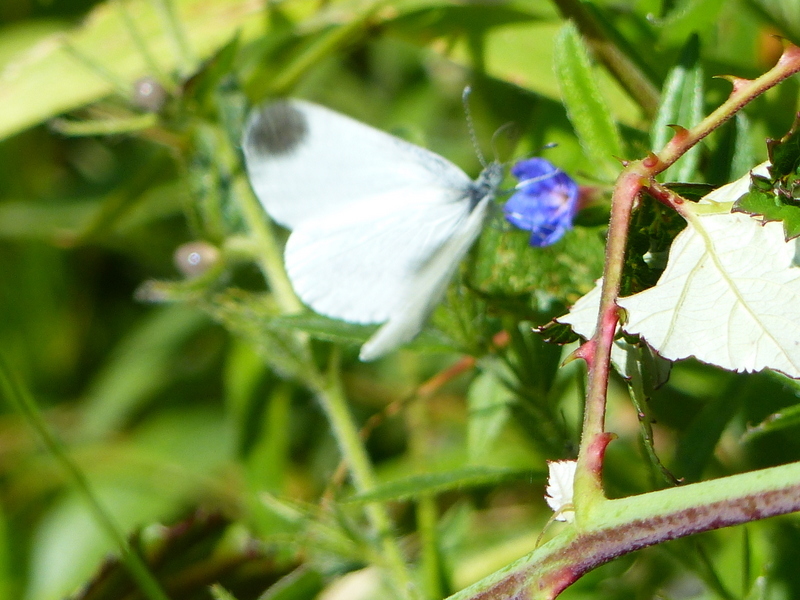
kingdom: Animalia
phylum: Arthropoda
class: Insecta
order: Lepidoptera
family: Pieridae
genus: Leptidea
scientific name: Leptidea sinapis
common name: Wood white
